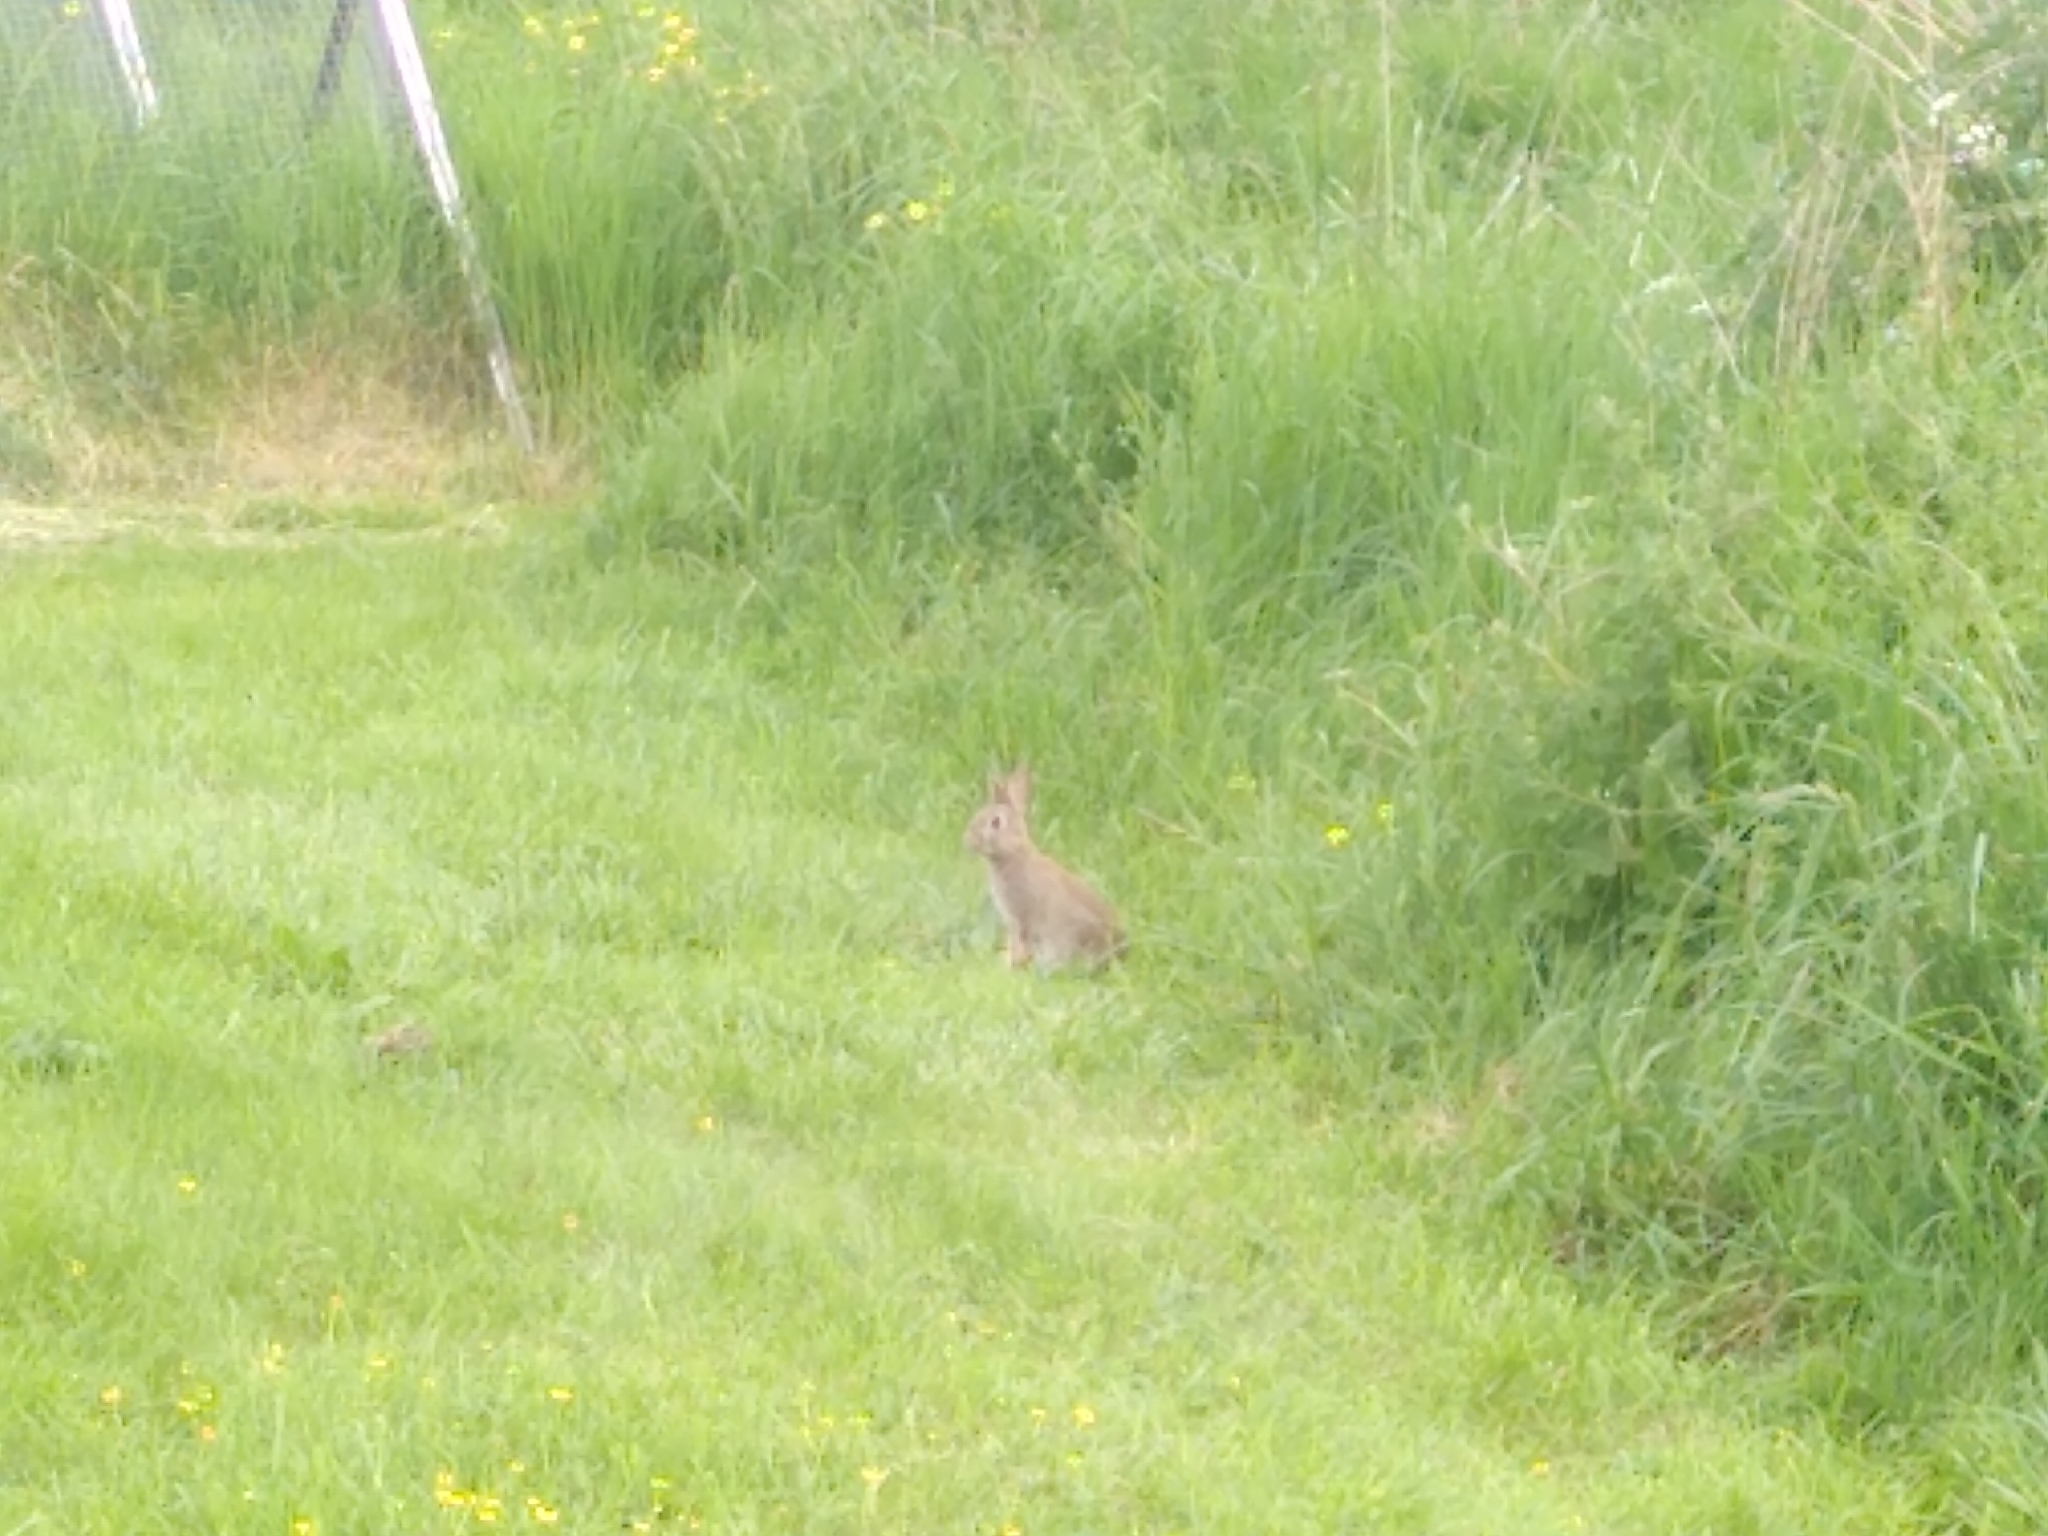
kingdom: Animalia
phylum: Chordata
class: Mammalia
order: Lagomorpha
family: Leporidae
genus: Oryctolagus
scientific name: Oryctolagus cuniculus
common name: European rabbit
